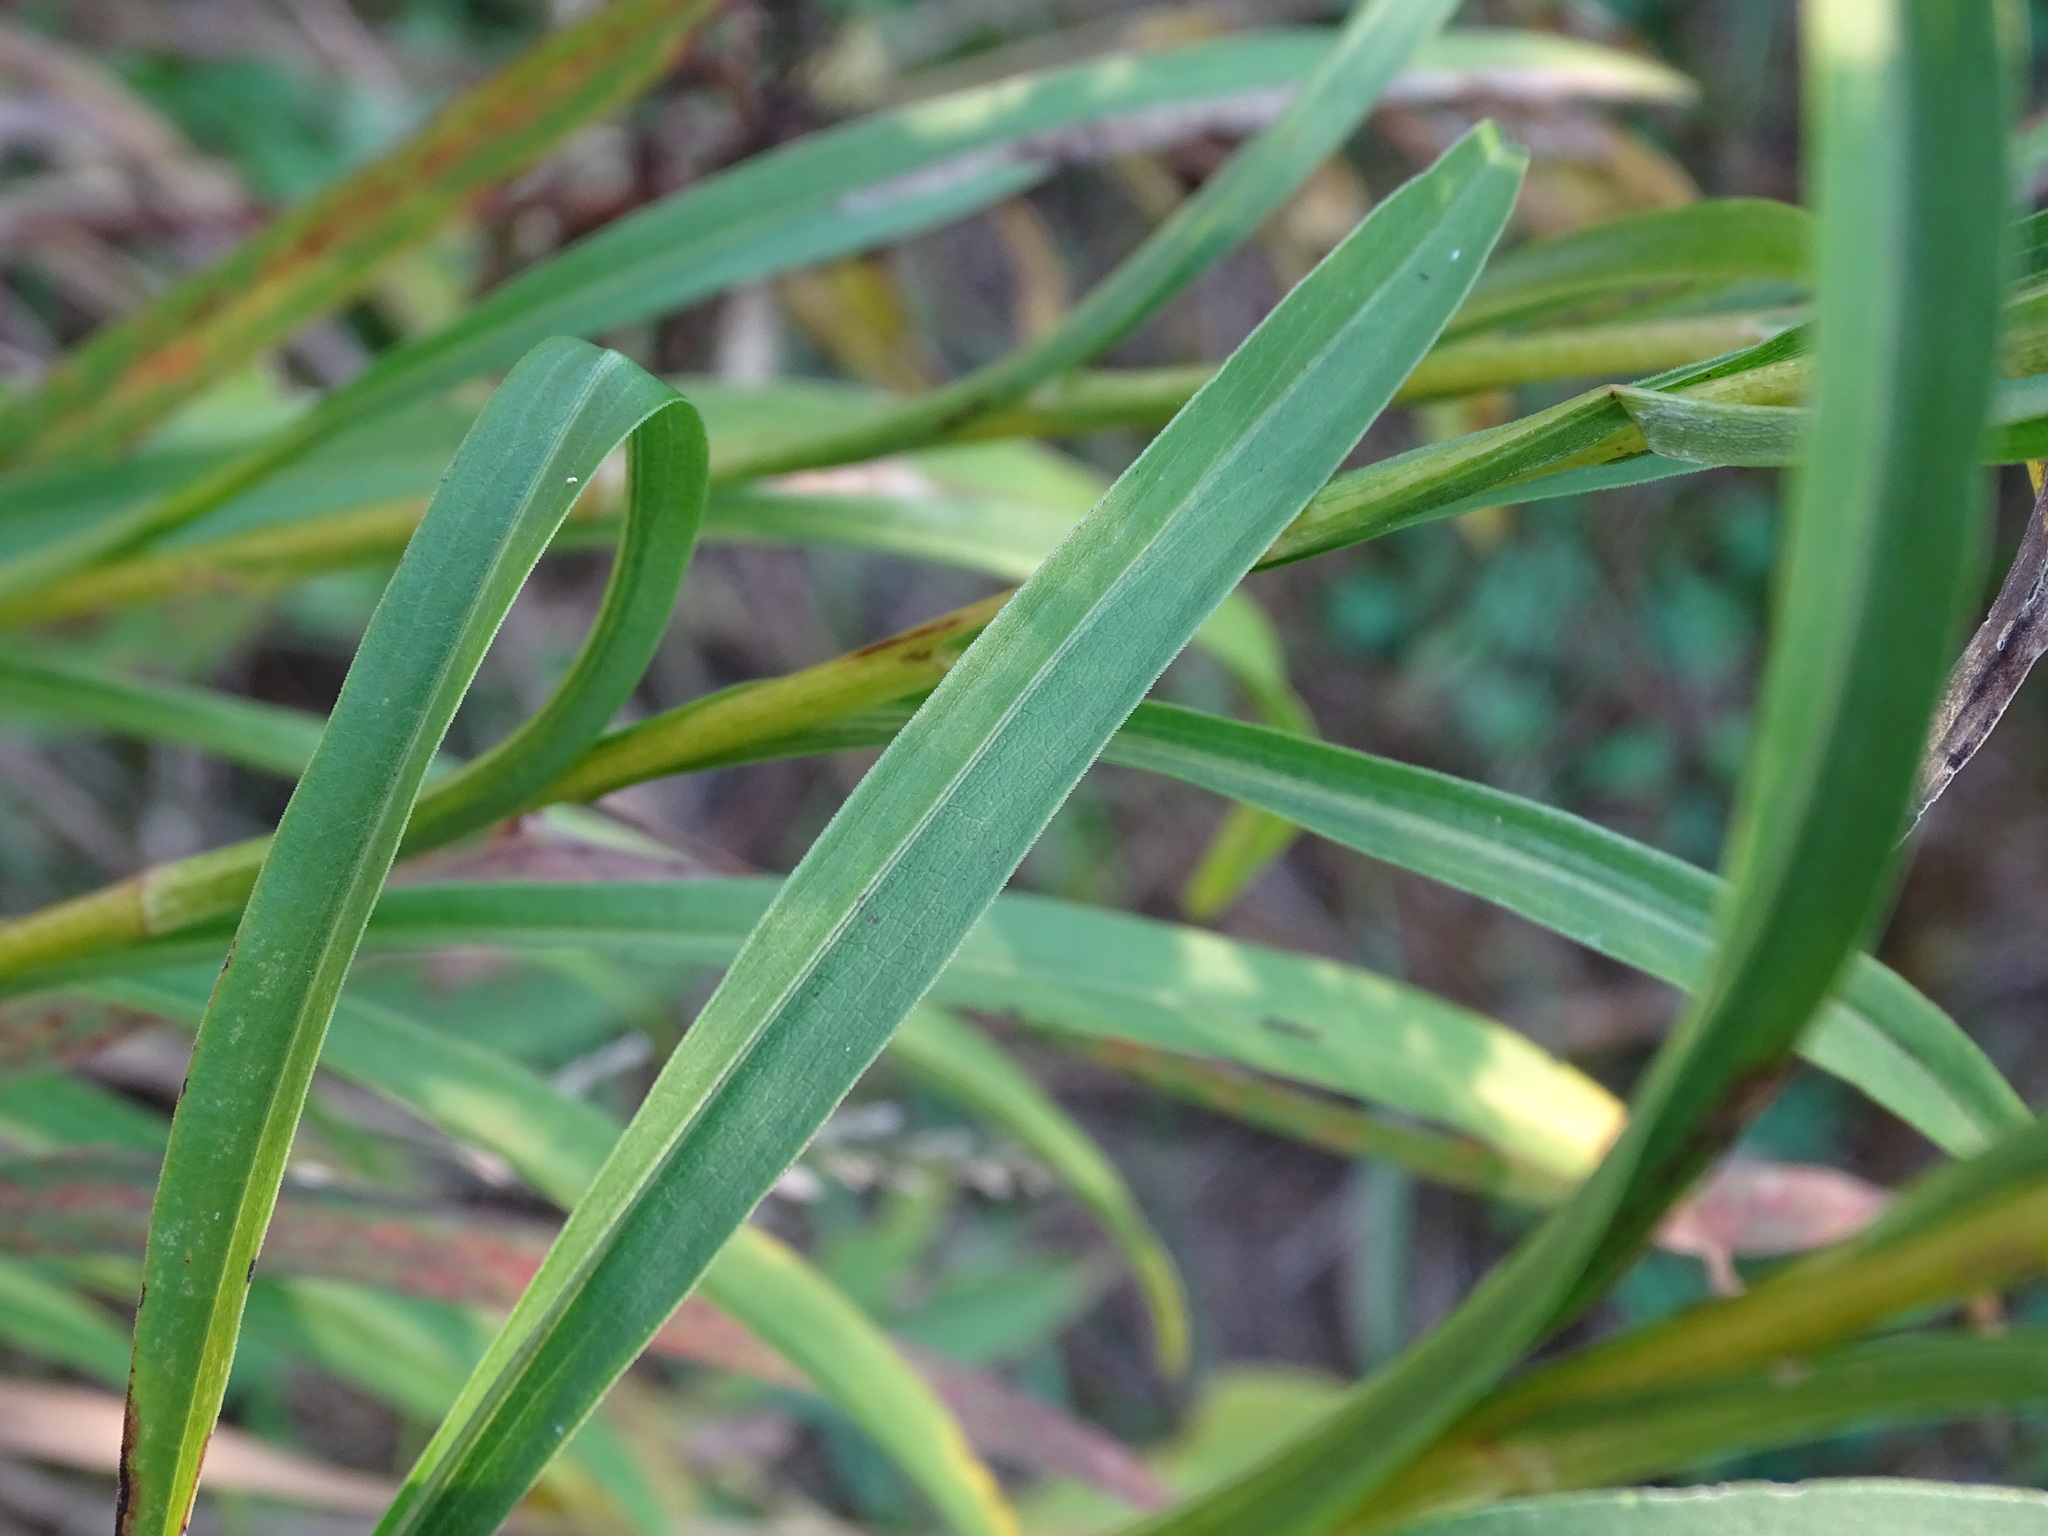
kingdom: Plantae
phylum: Tracheophyta
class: Magnoliopsida
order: Asterales
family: Asteraceae
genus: Solidago
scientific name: Solidago riddellii
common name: Riddell's goldenrod
